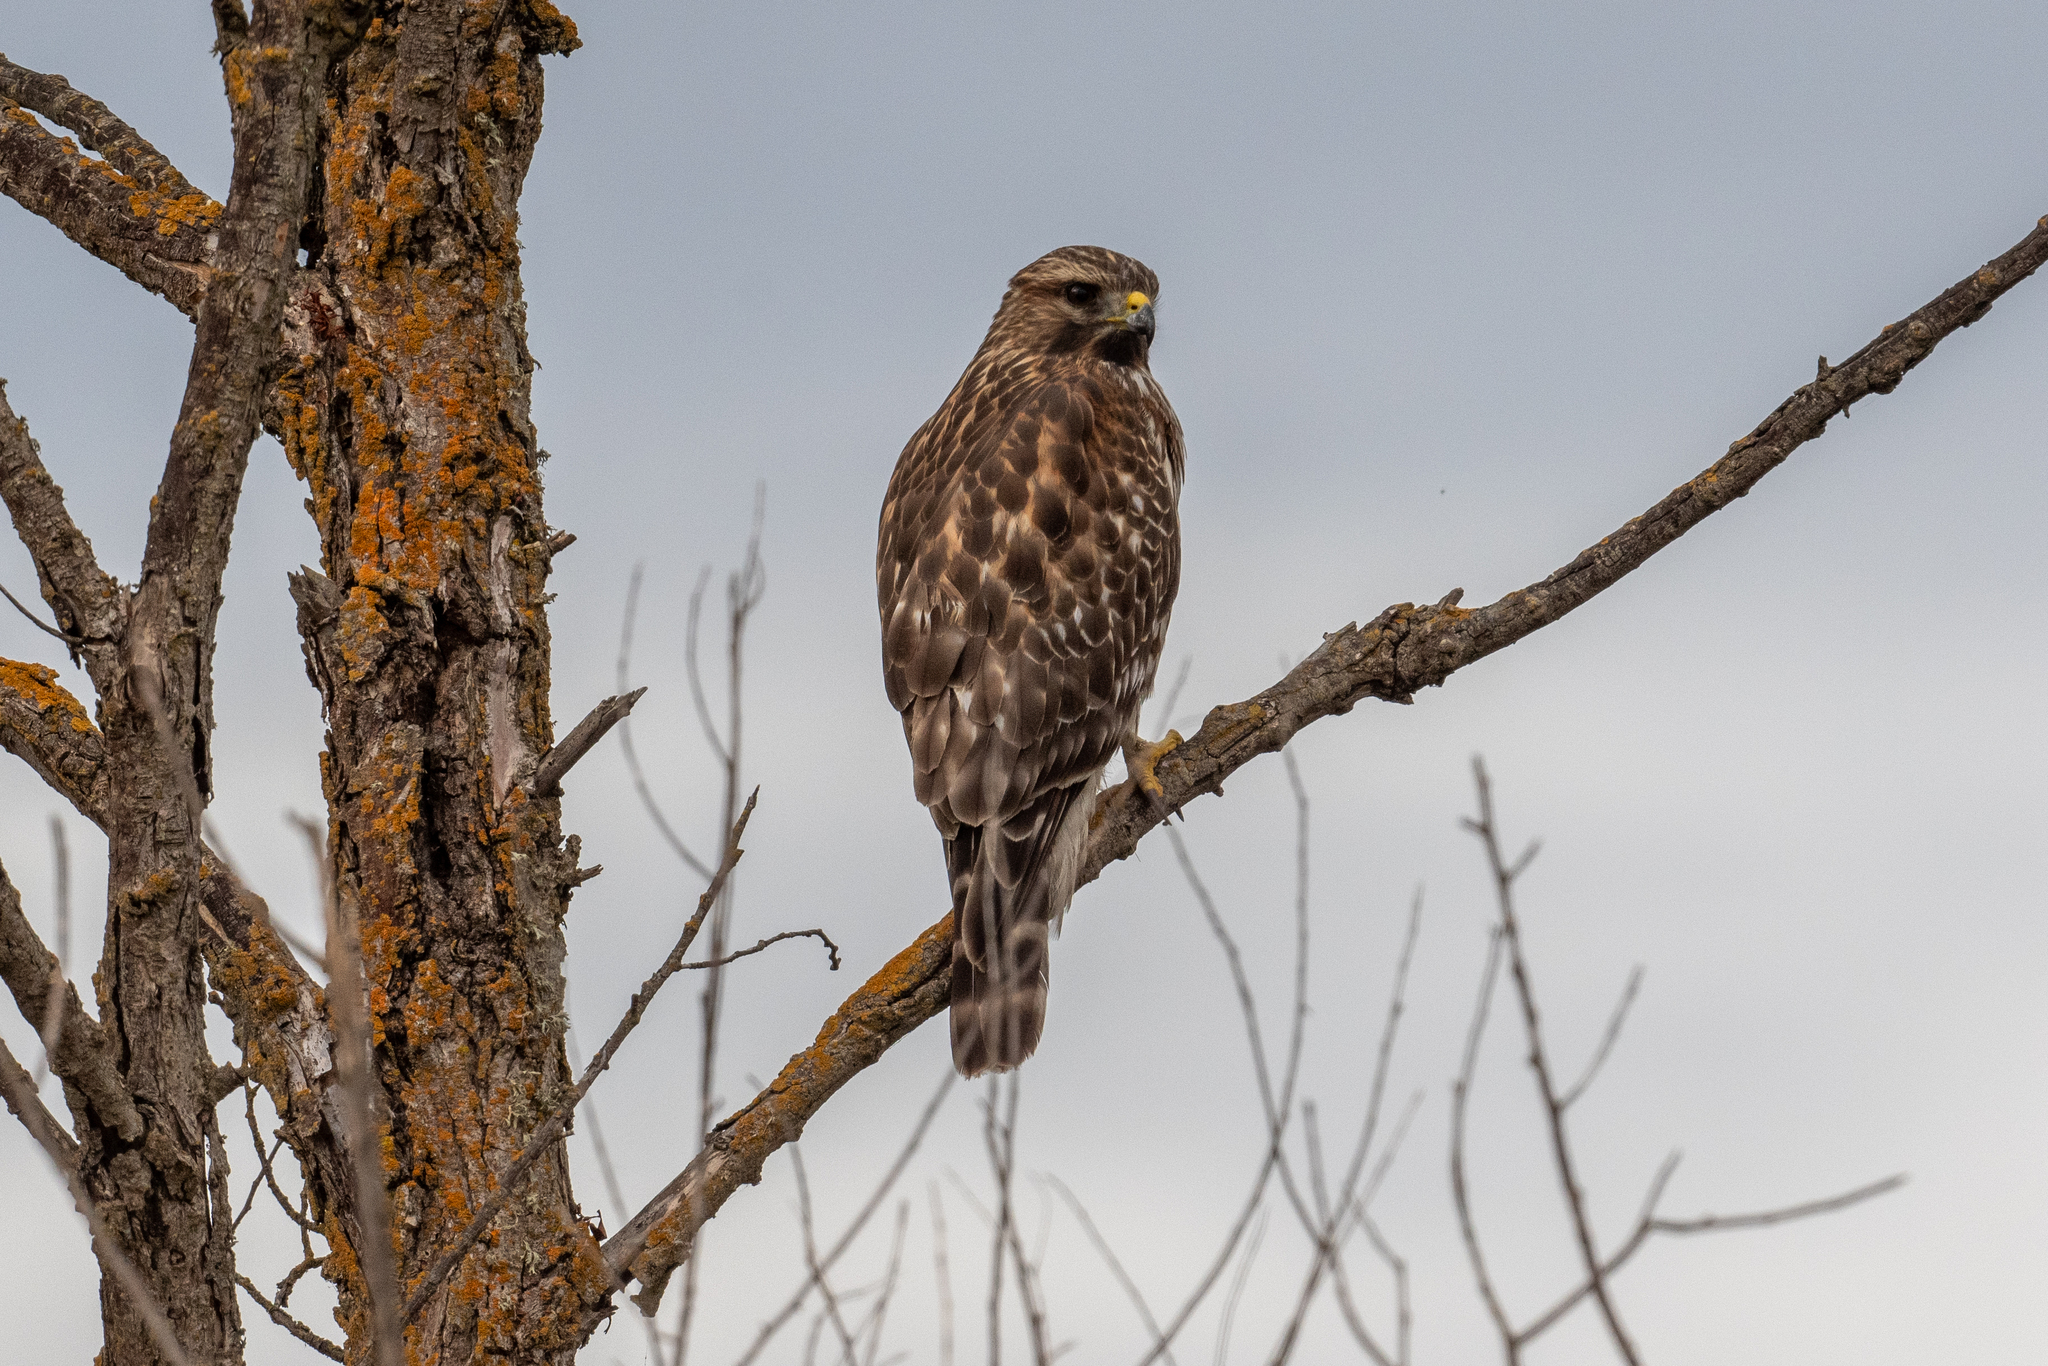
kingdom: Animalia
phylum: Chordata
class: Aves
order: Accipitriformes
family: Accipitridae
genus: Buteo
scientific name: Buteo lineatus
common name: Red-shouldered hawk
